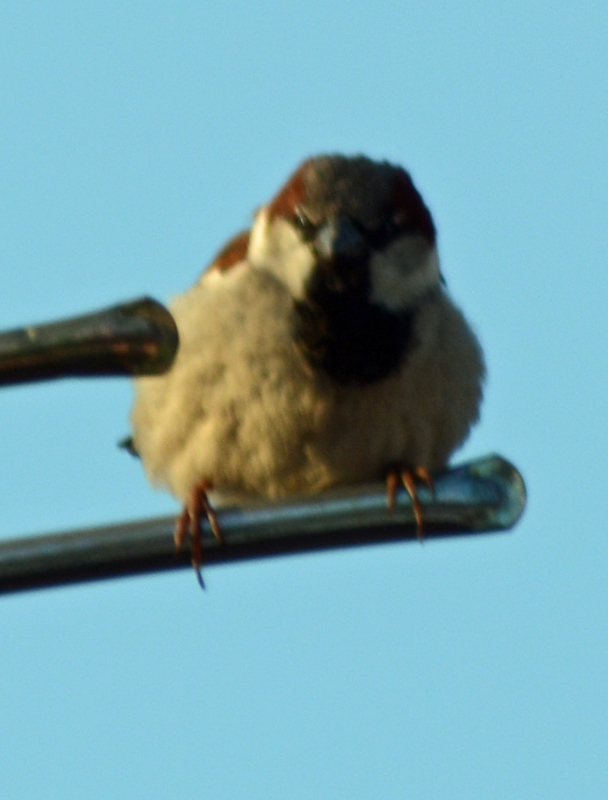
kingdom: Animalia
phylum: Chordata
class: Aves
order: Passeriformes
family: Passeridae
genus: Passer
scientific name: Passer domesticus
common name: House sparrow
